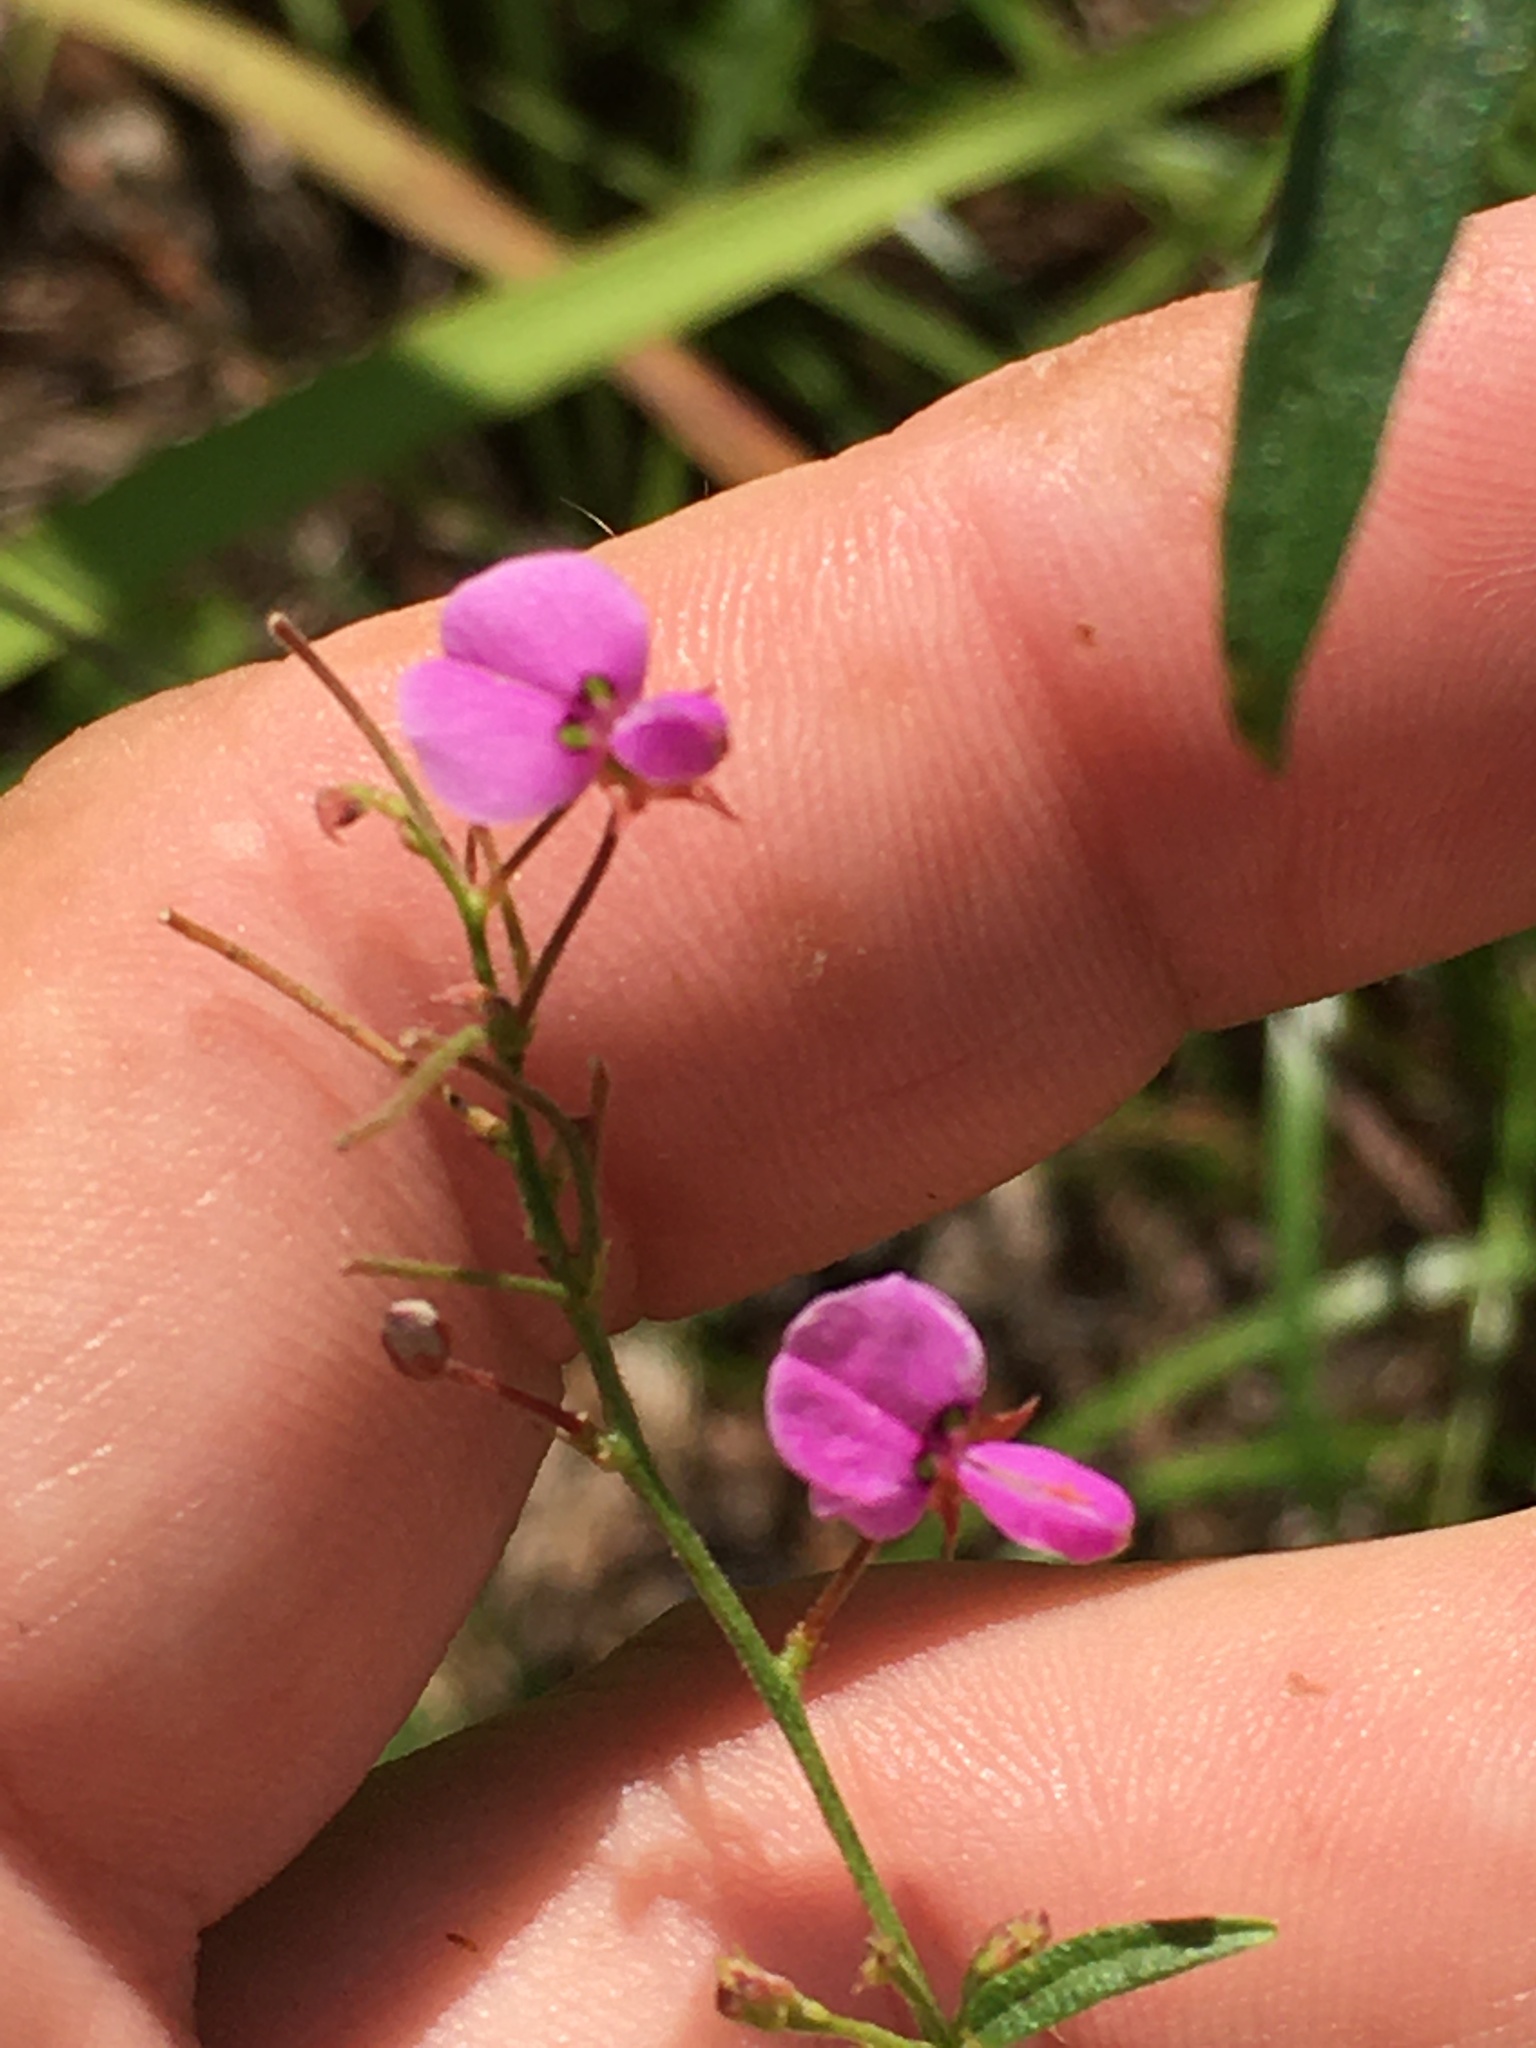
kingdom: Plantae
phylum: Tracheophyta
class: Magnoliopsida
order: Fabales
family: Fabaceae
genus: Desmodium
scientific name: Desmodium paniculatum
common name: Panicled tick-clover
